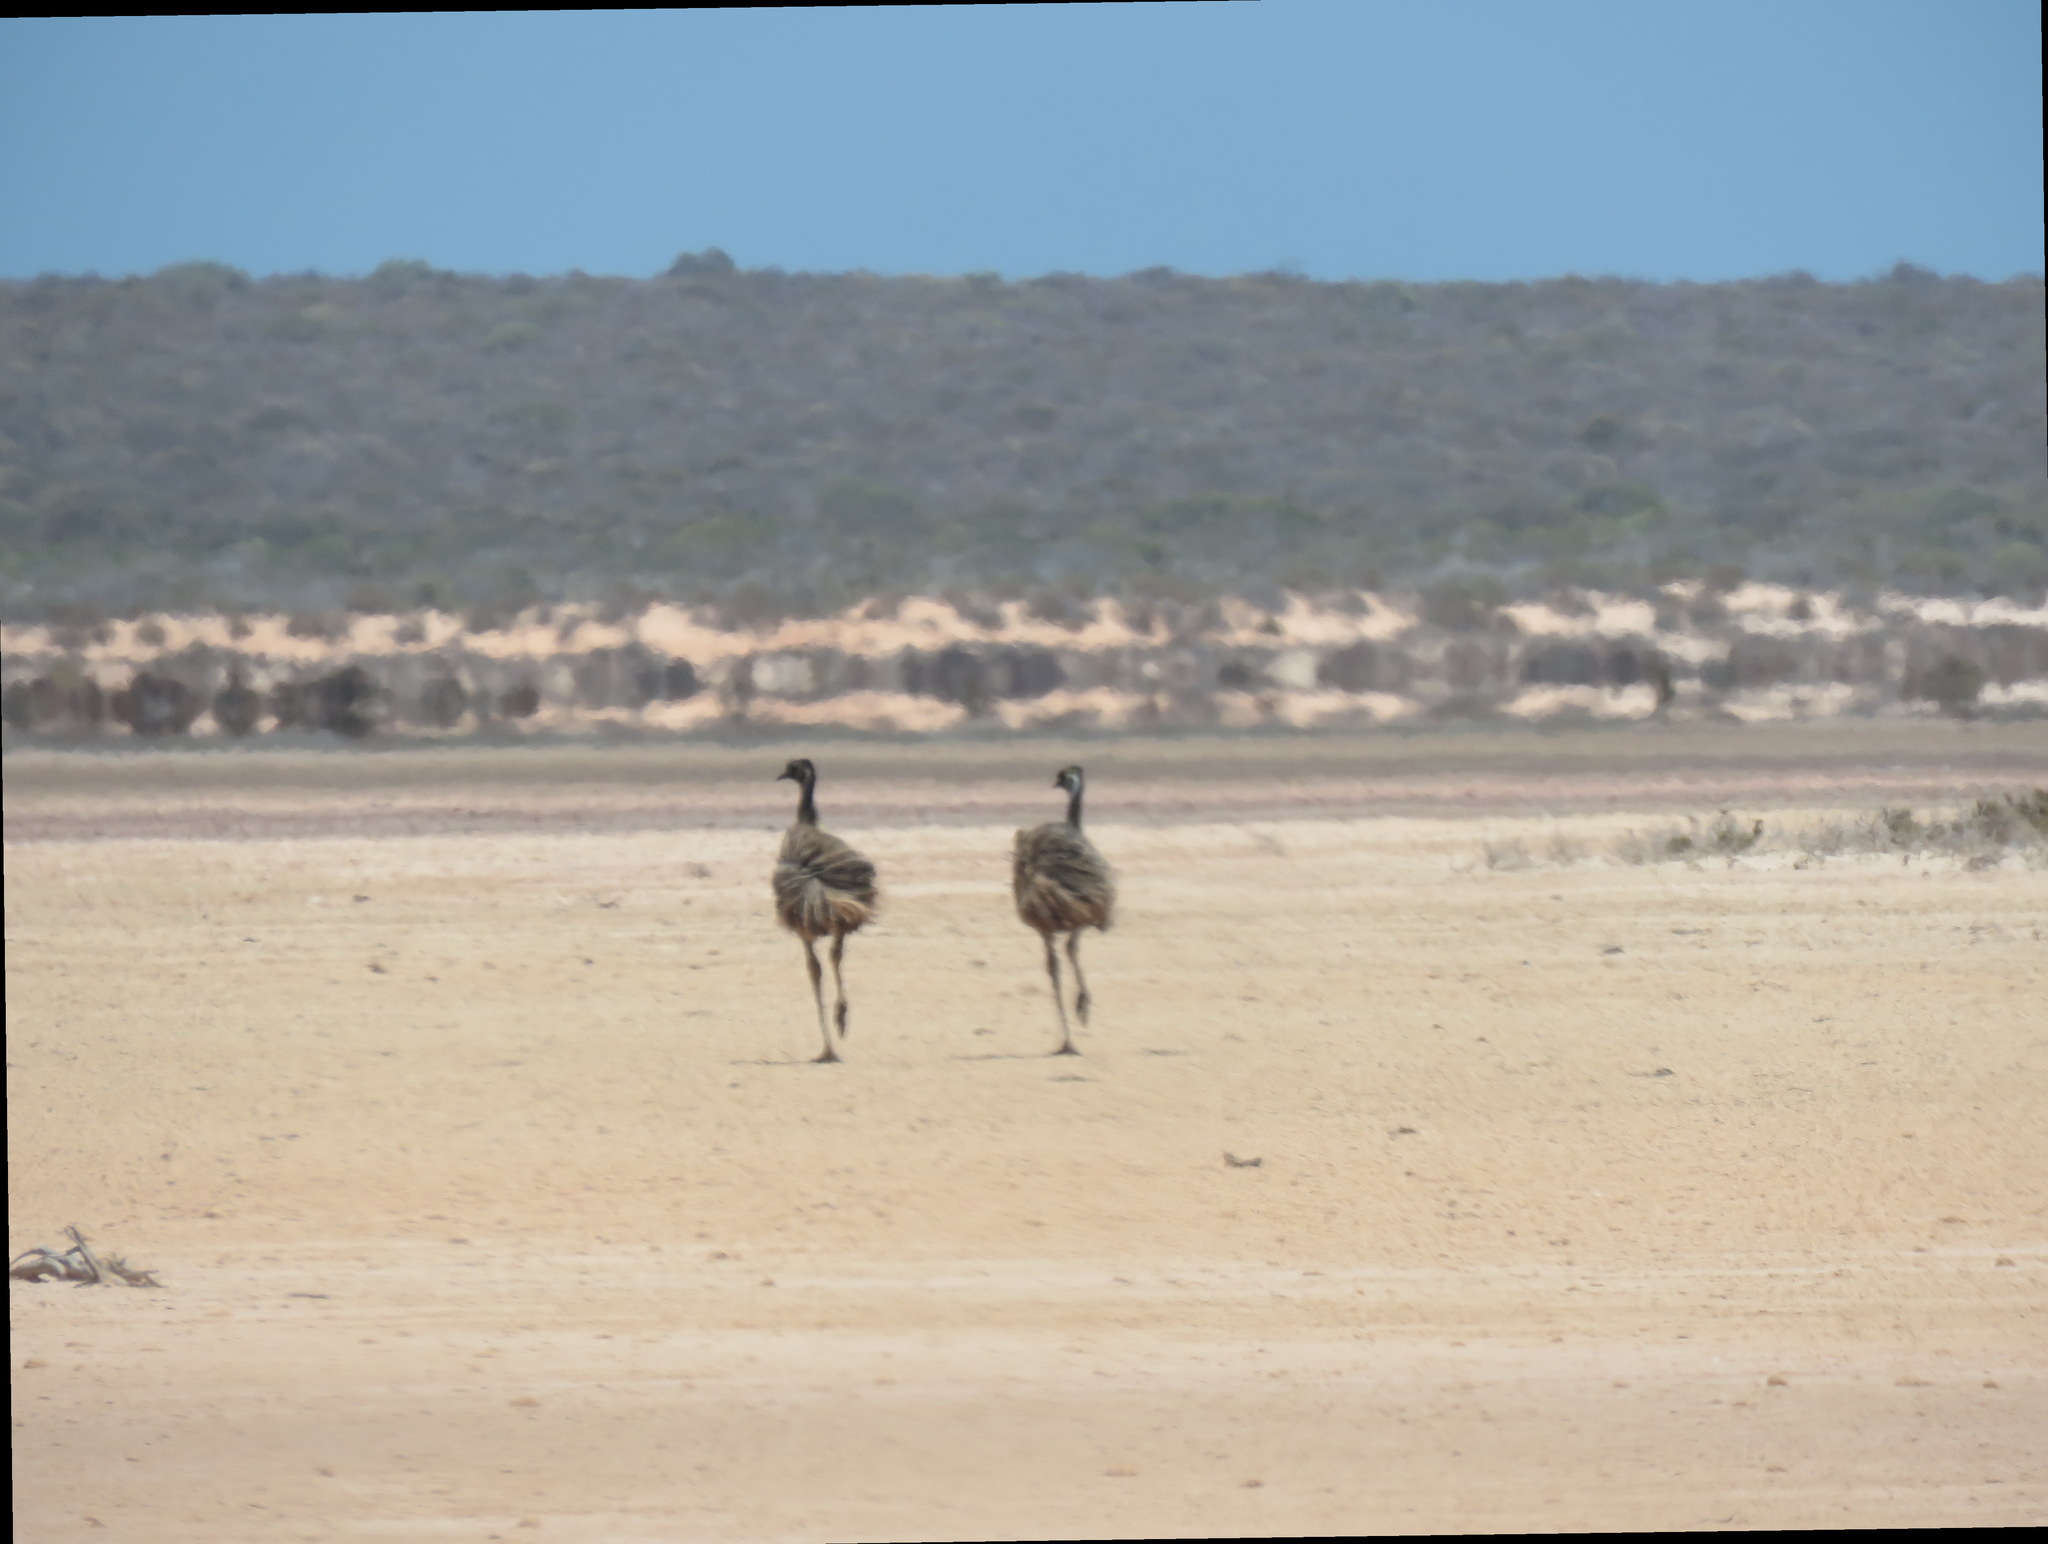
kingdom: Animalia
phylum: Chordata
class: Aves
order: Casuariiformes
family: Dromaiidae
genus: Dromaius
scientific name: Dromaius novaehollandiae
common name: Emu
